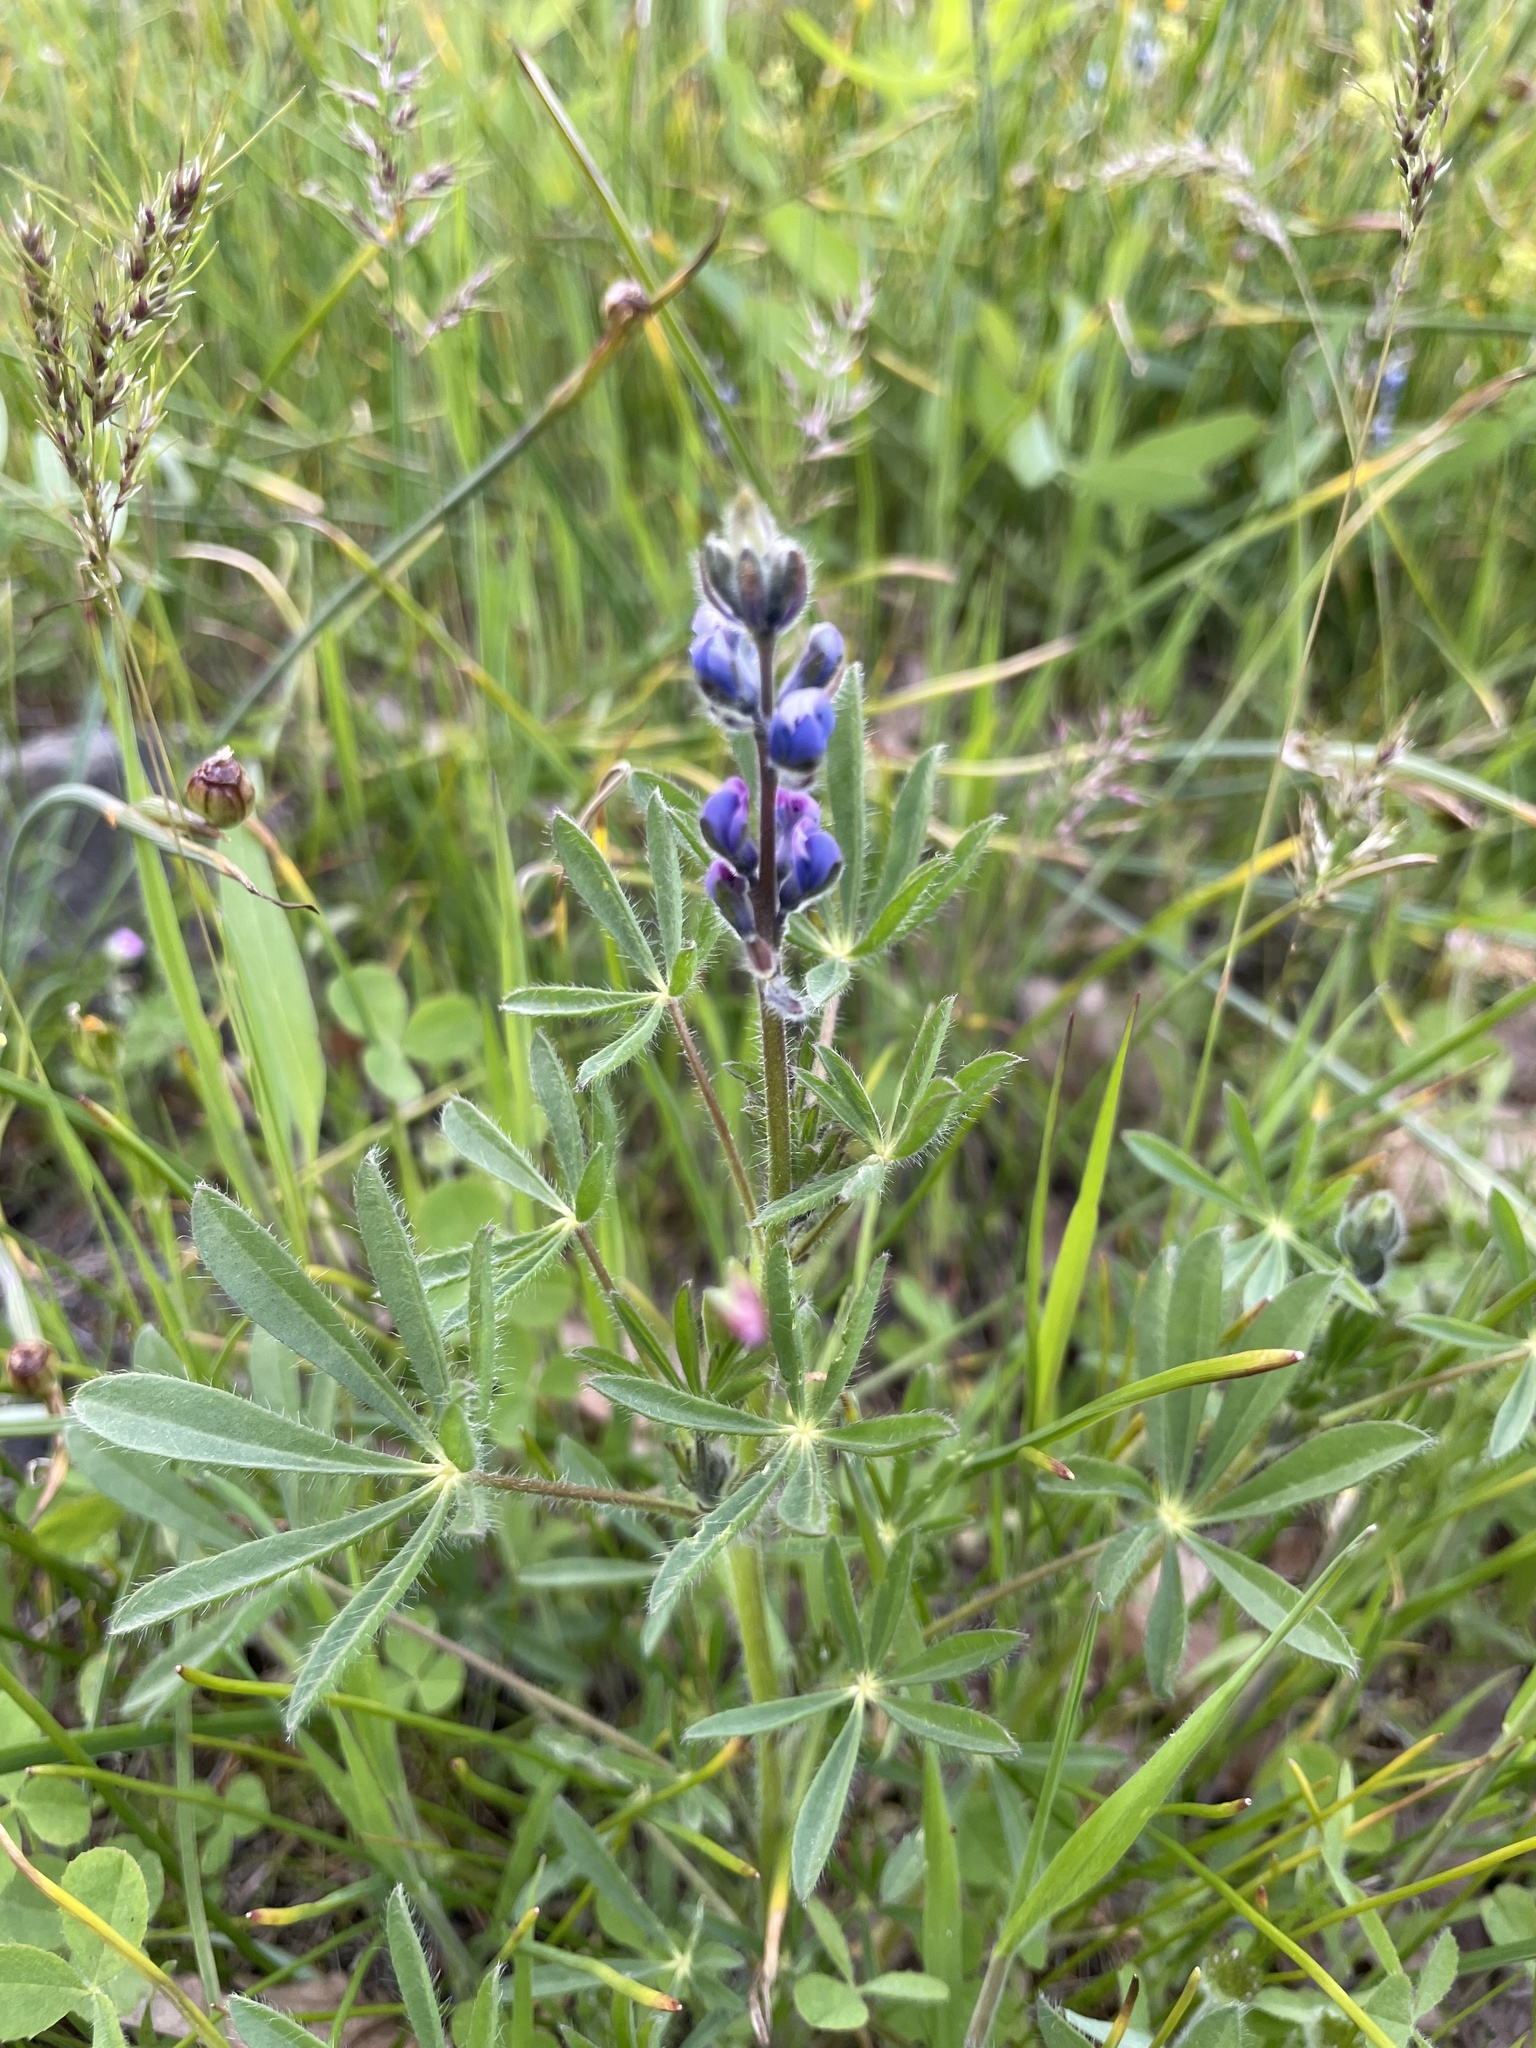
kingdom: Plantae
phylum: Tracheophyta
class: Magnoliopsida
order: Fabales
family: Fabaceae
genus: Lupinus
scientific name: Lupinus bicolor
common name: Miniature lupine
